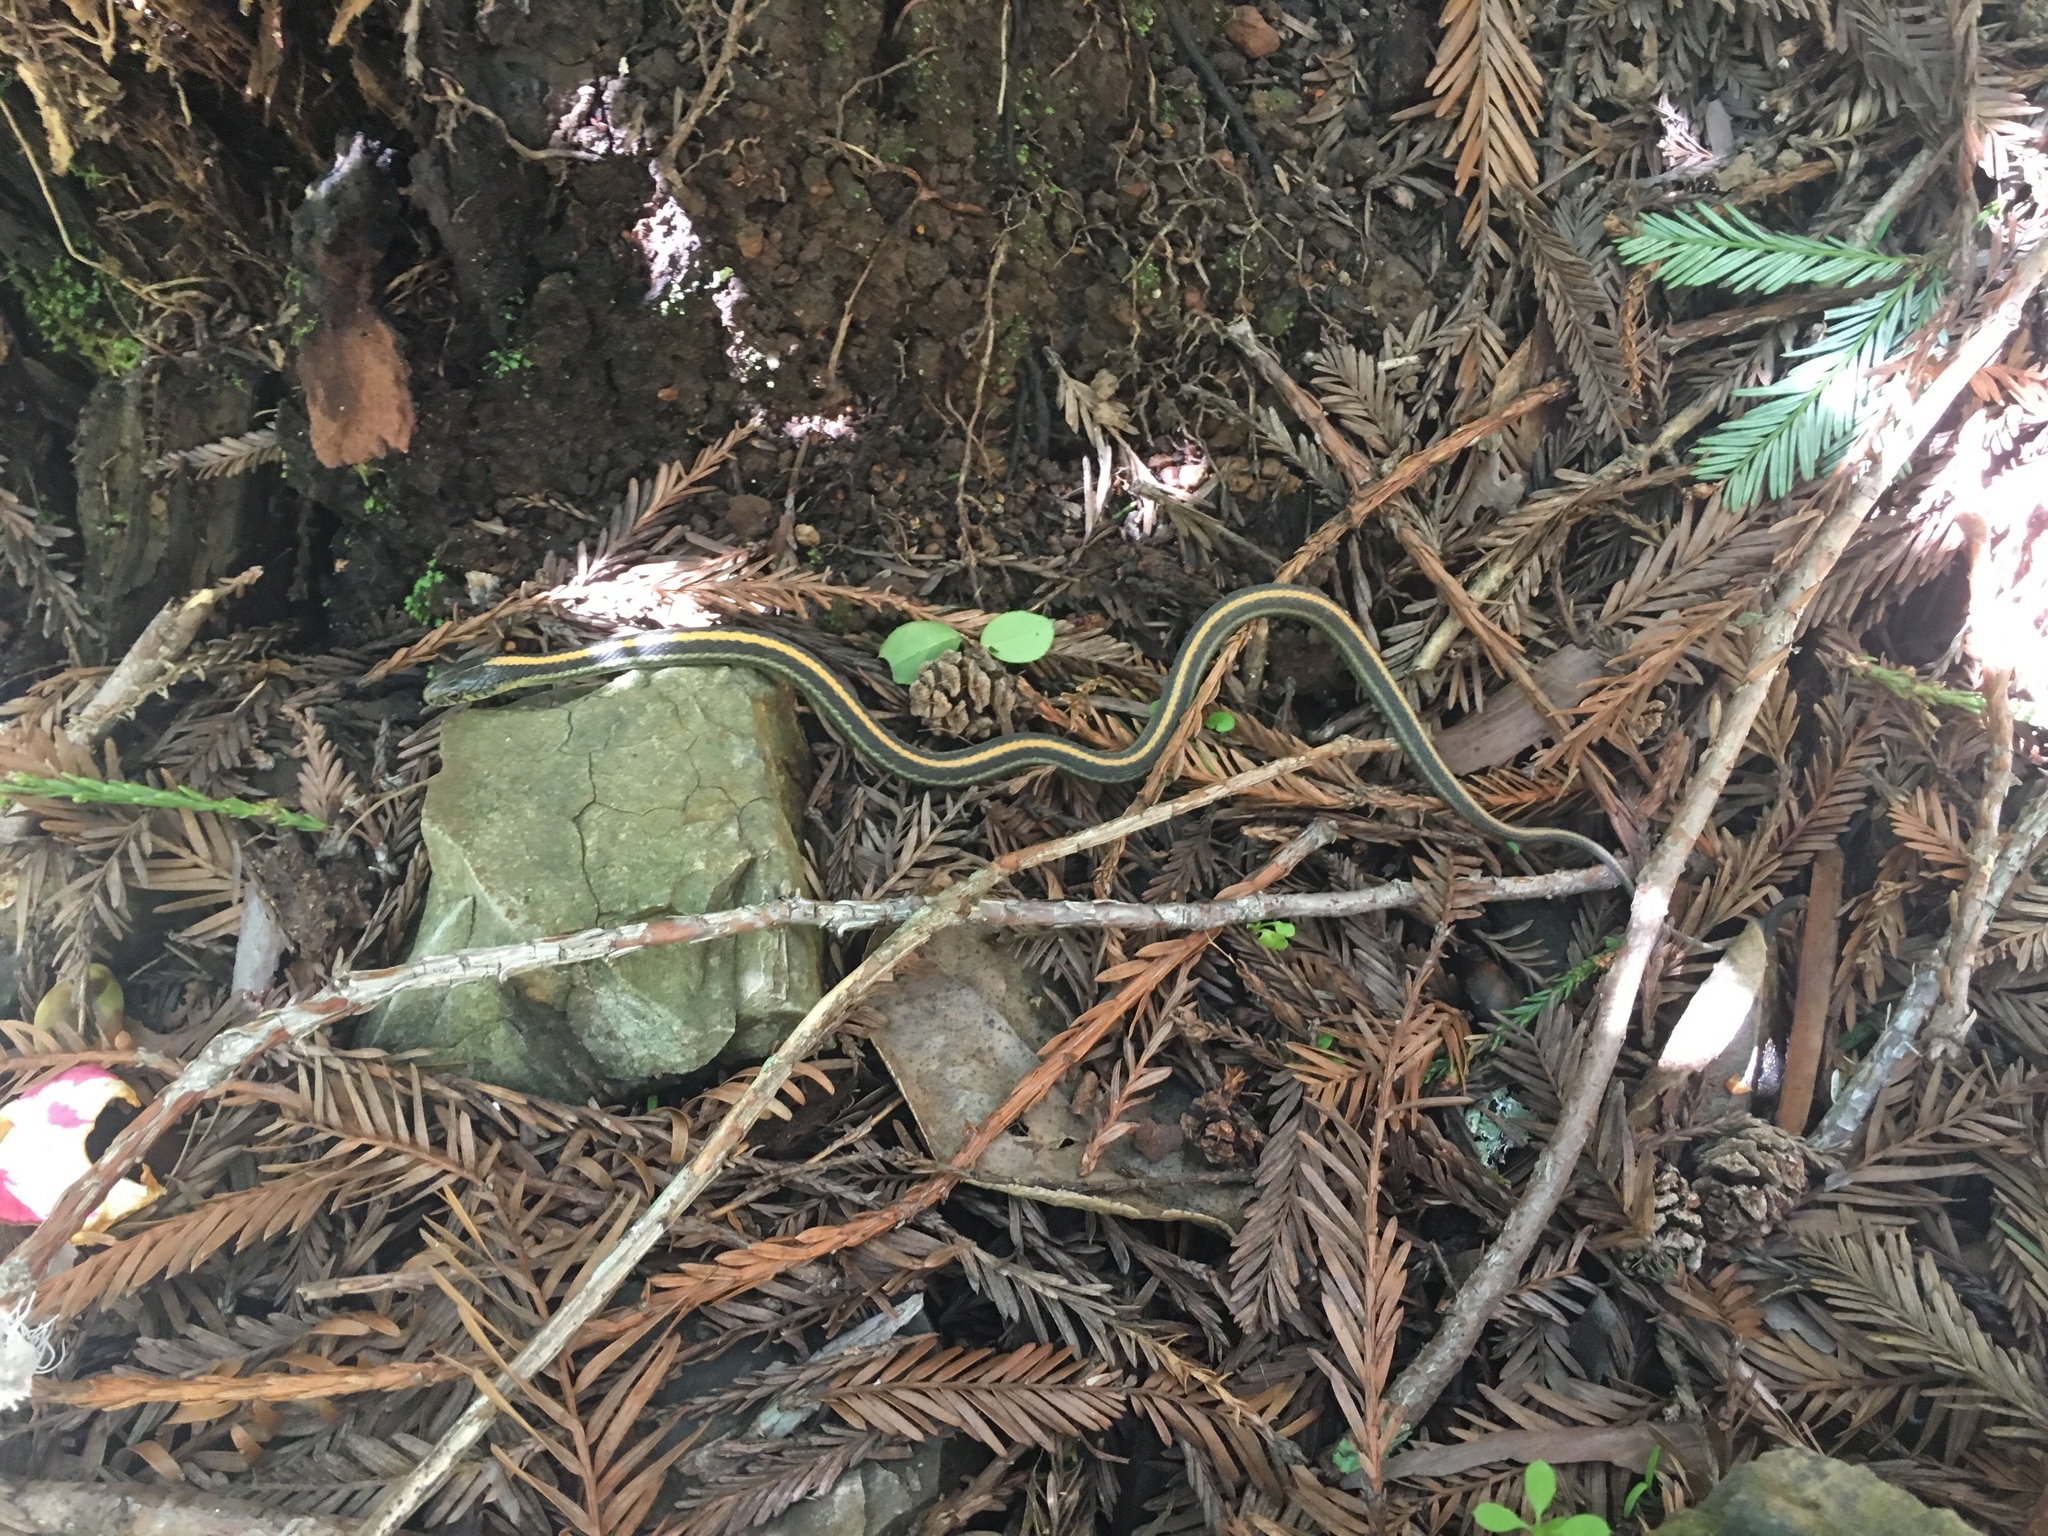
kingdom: Animalia
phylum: Chordata
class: Squamata
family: Colubridae
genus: Thamnophis
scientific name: Thamnophis
